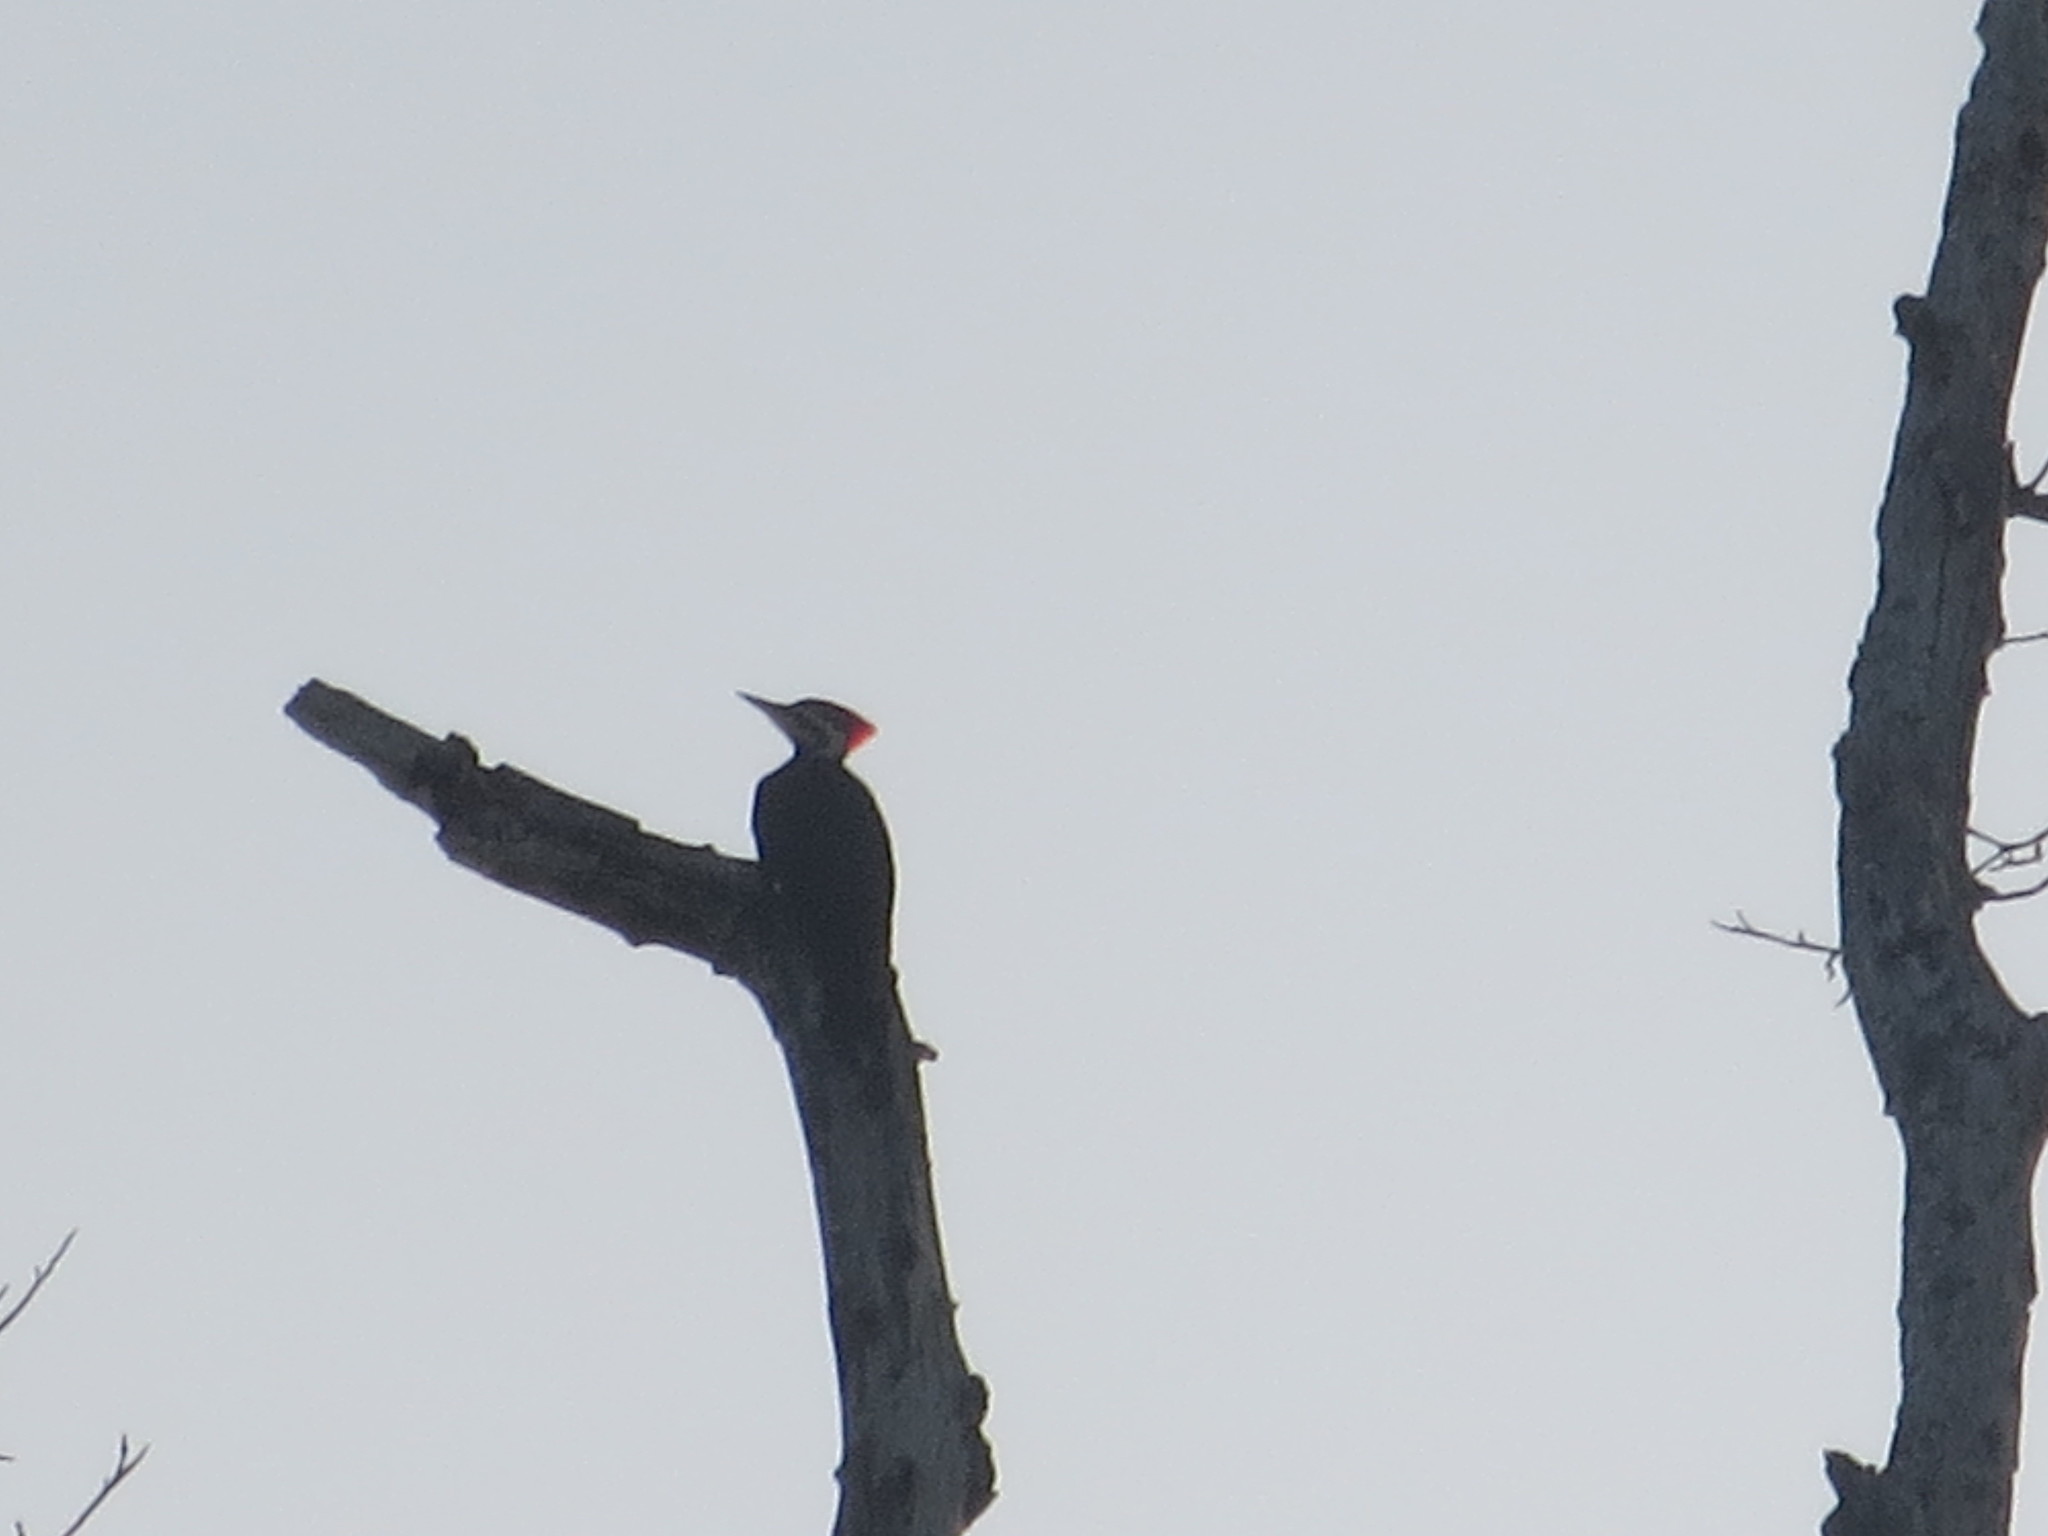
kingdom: Animalia
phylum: Chordata
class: Aves
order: Piciformes
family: Picidae
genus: Dryocopus
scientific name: Dryocopus pileatus
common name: Pileated woodpecker
